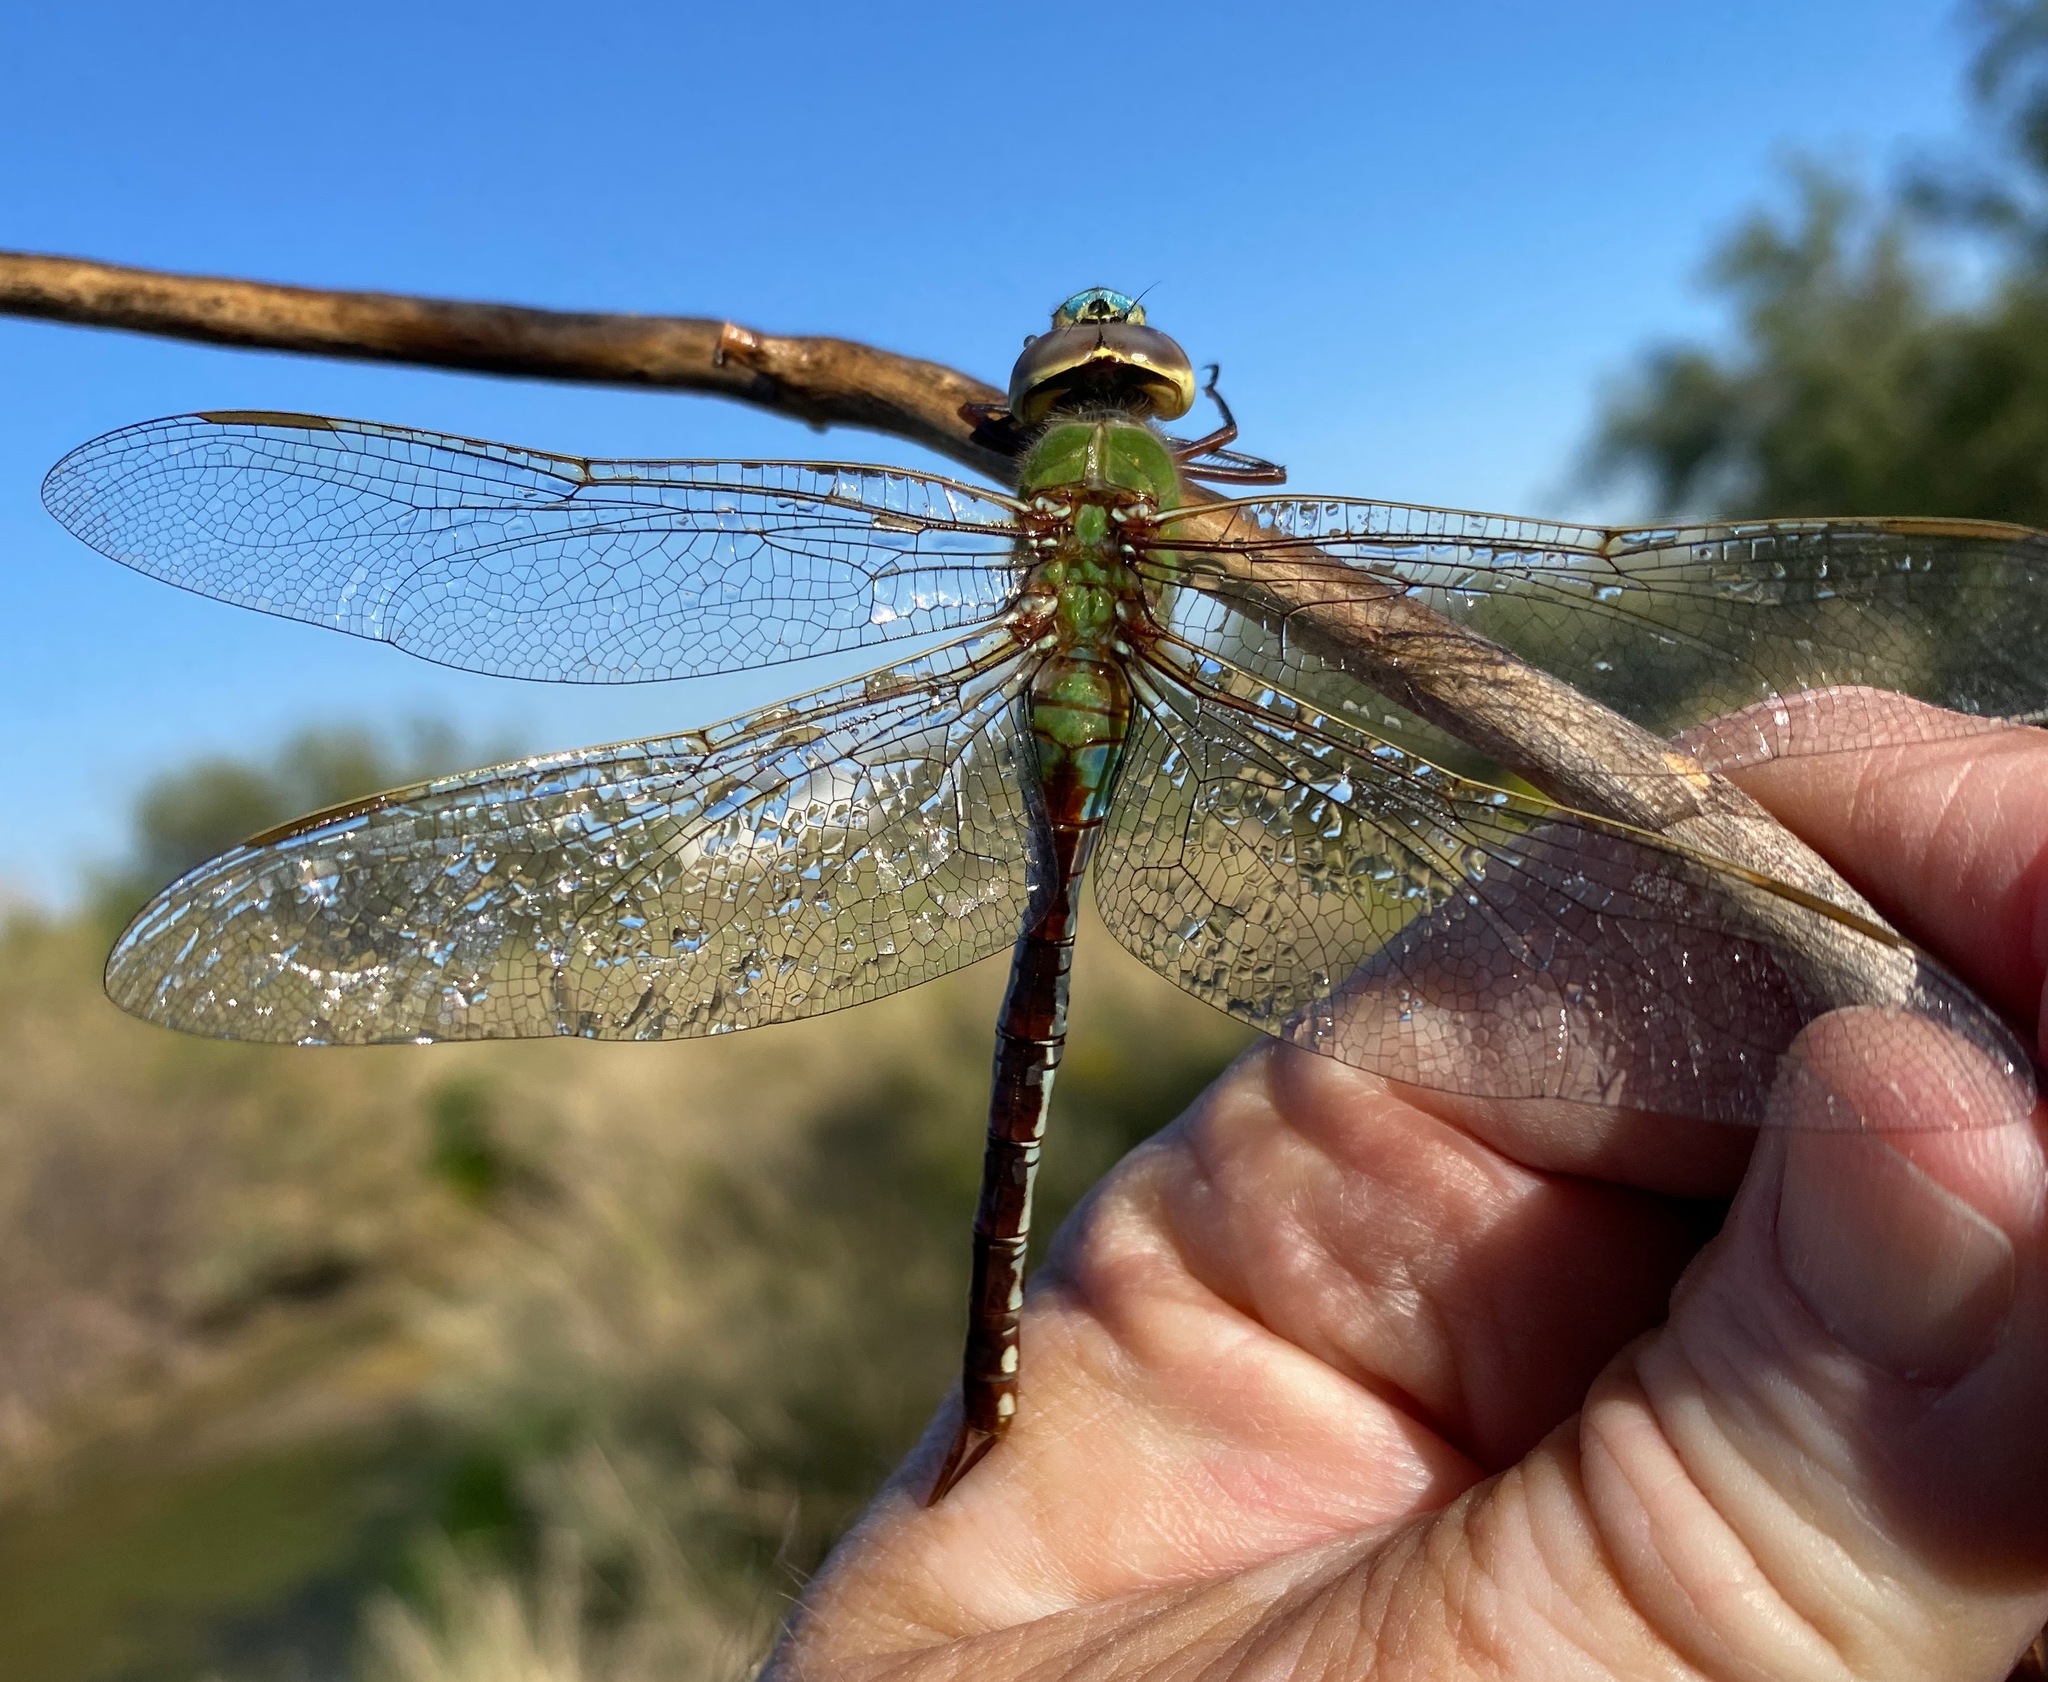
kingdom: Animalia
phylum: Arthropoda
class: Insecta
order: Odonata
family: Aeshnidae
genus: Anax
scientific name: Anax junius
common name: Common green darner
